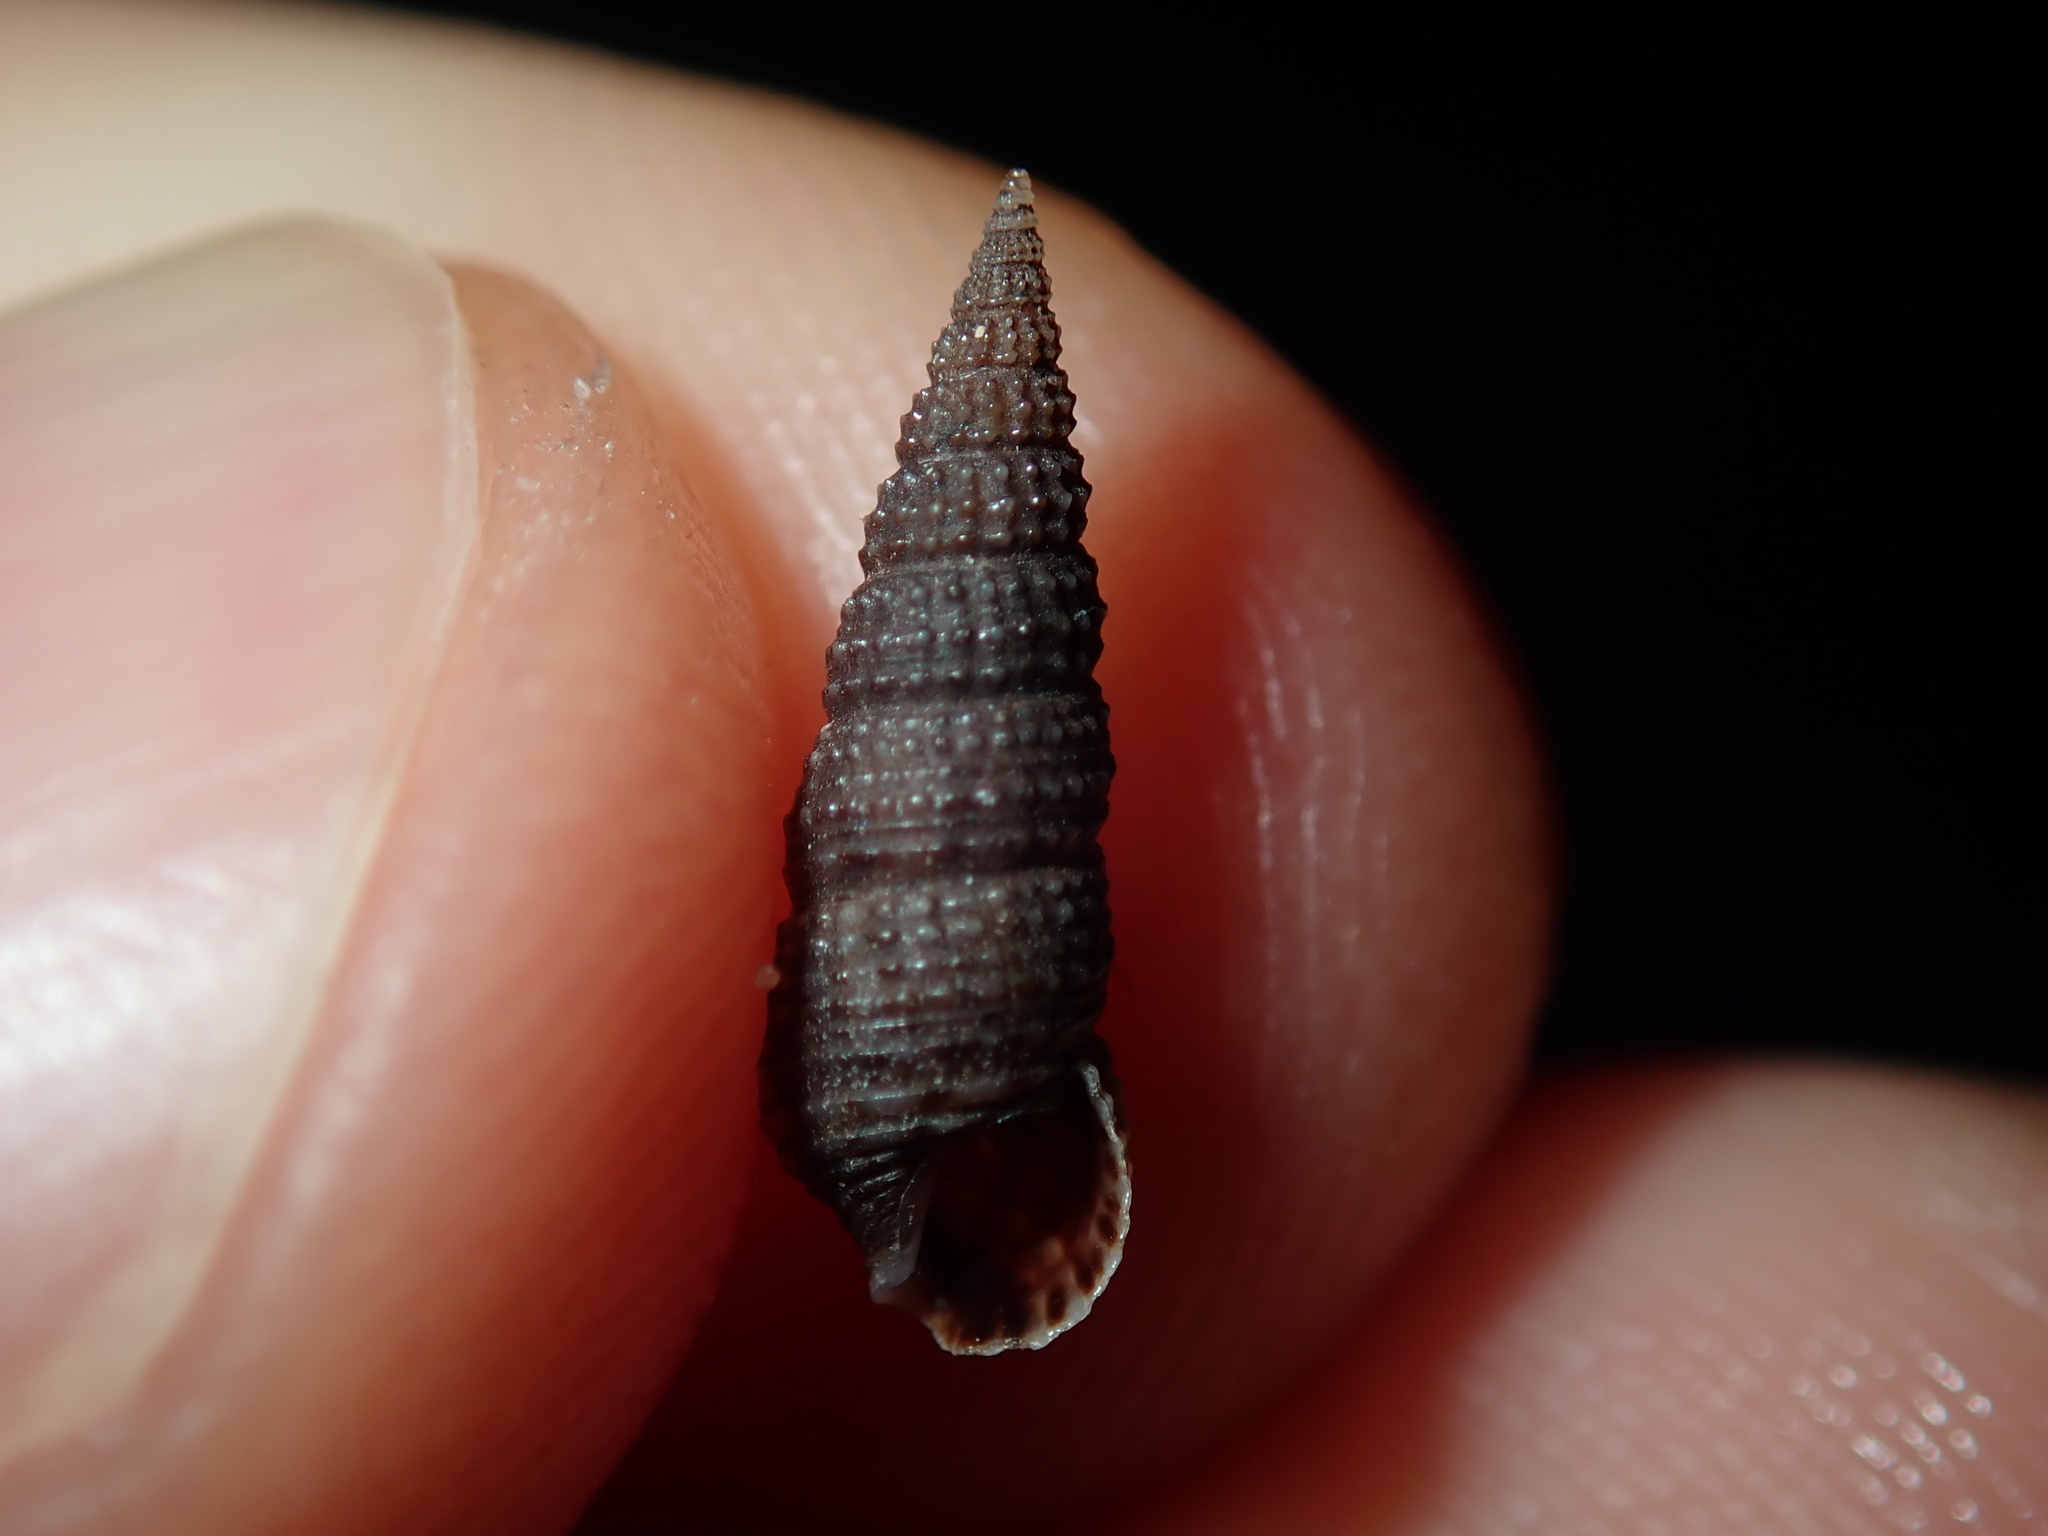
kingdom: Animalia
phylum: Mollusca
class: Gastropoda
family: Cerithiidae
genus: Cacozeliana
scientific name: Cacozeliana granarium
